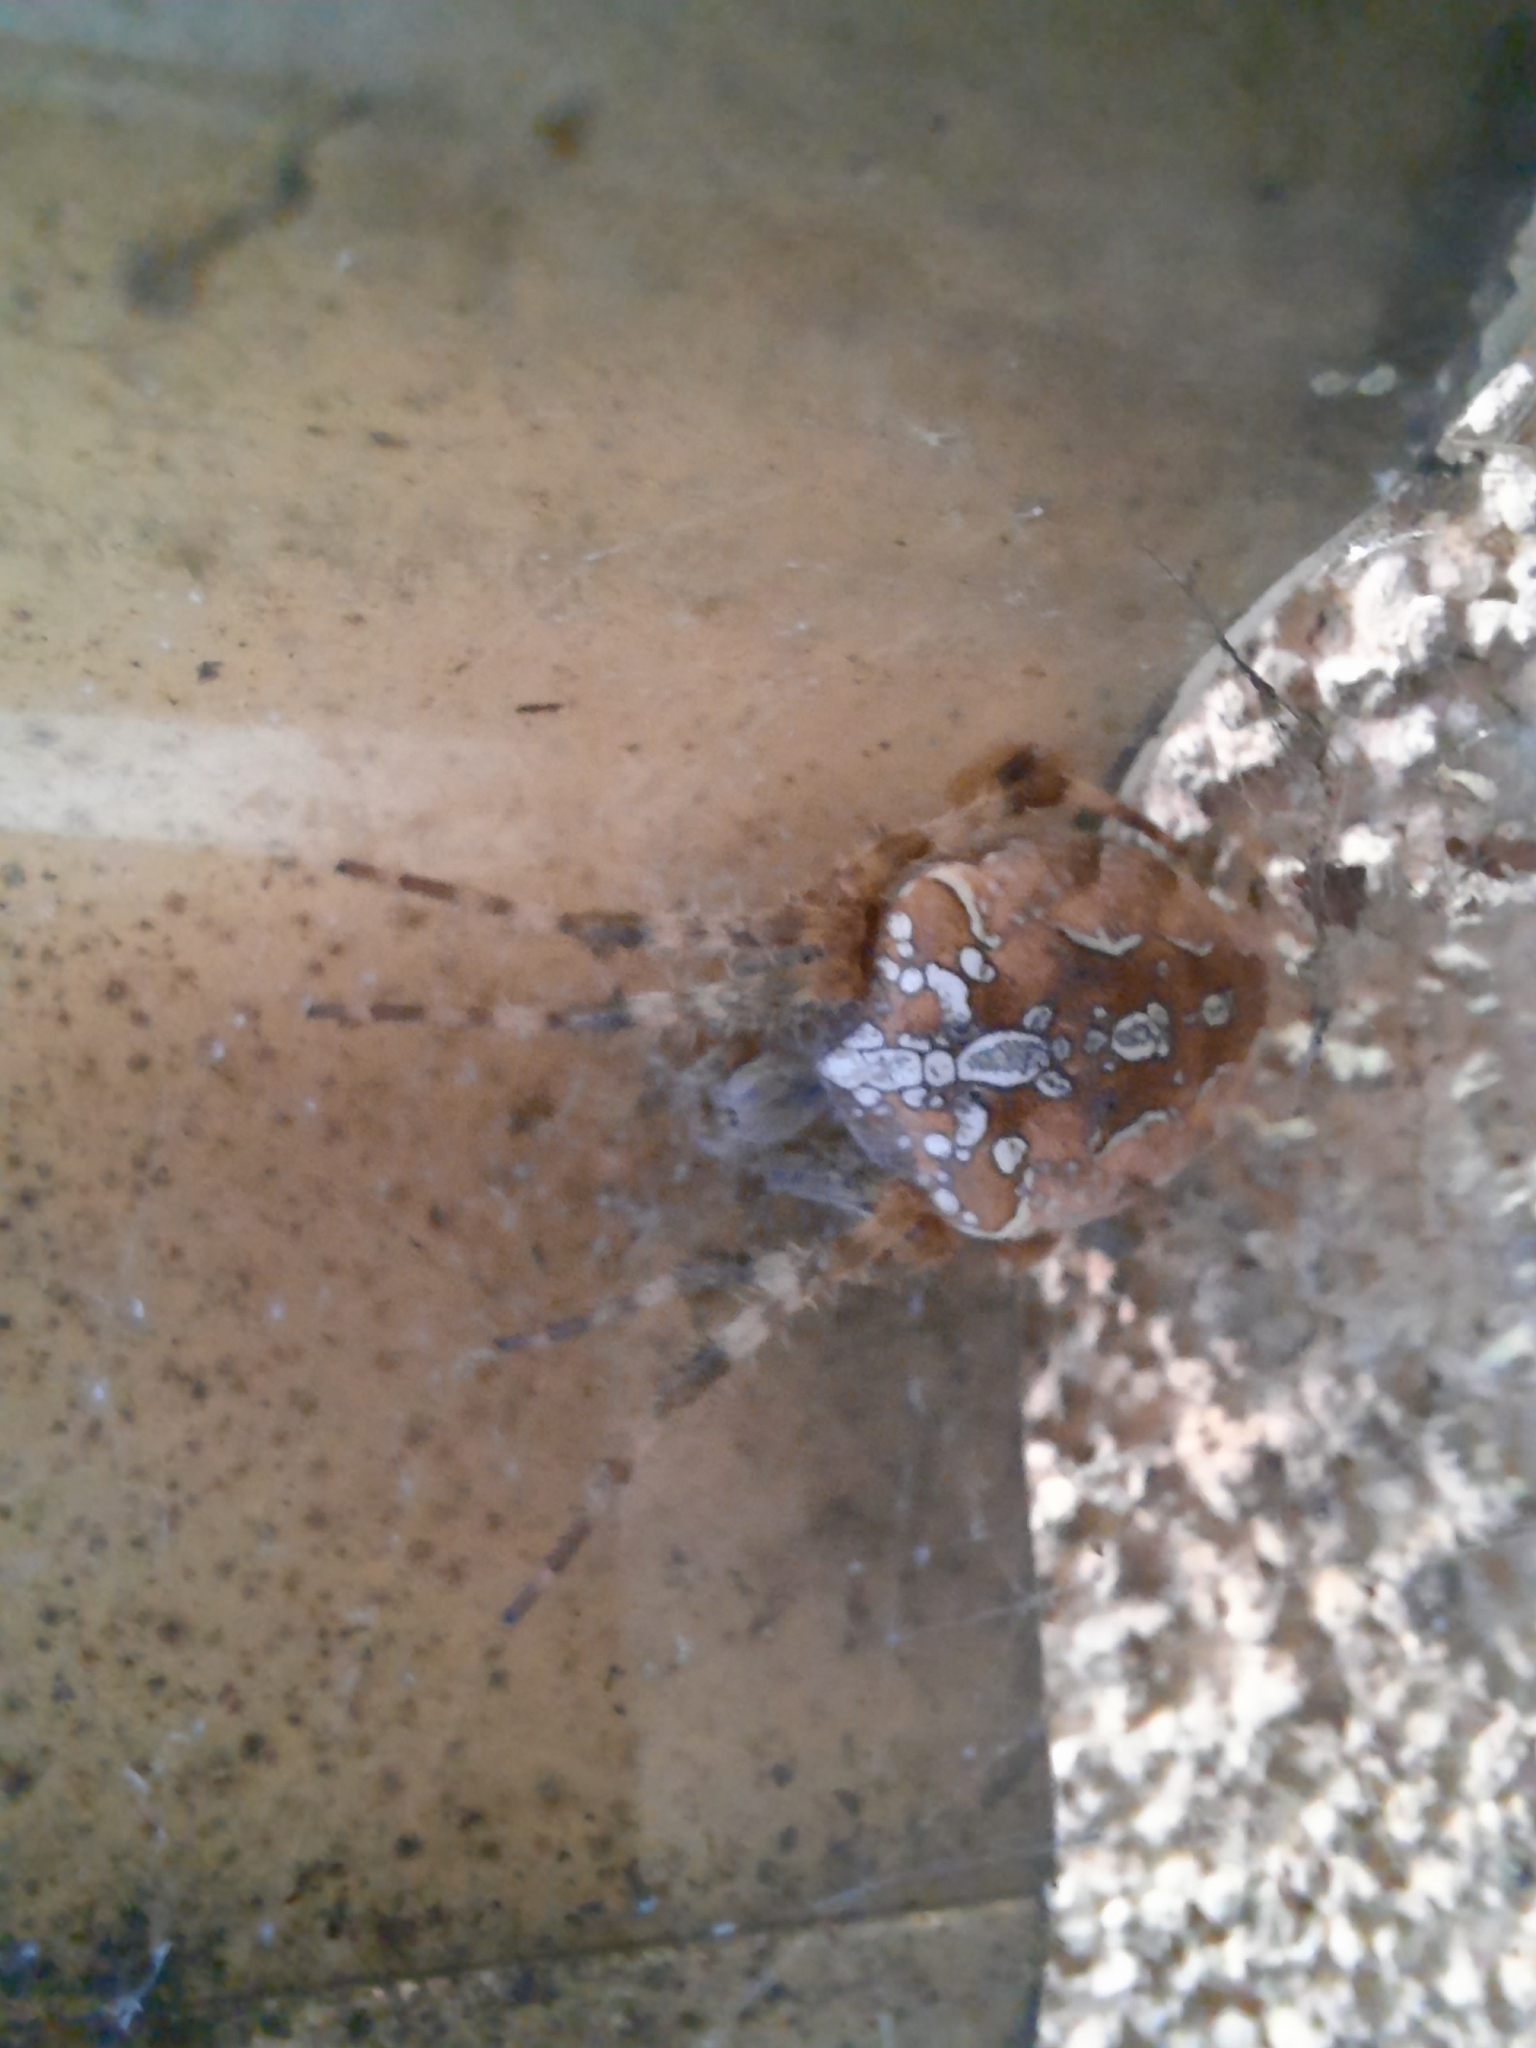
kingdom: Animalia
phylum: Arthropoda
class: Arachnida
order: Araneae
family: Araneidae
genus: Araneus
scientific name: Araneus diadematus
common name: Cross orbweaver
